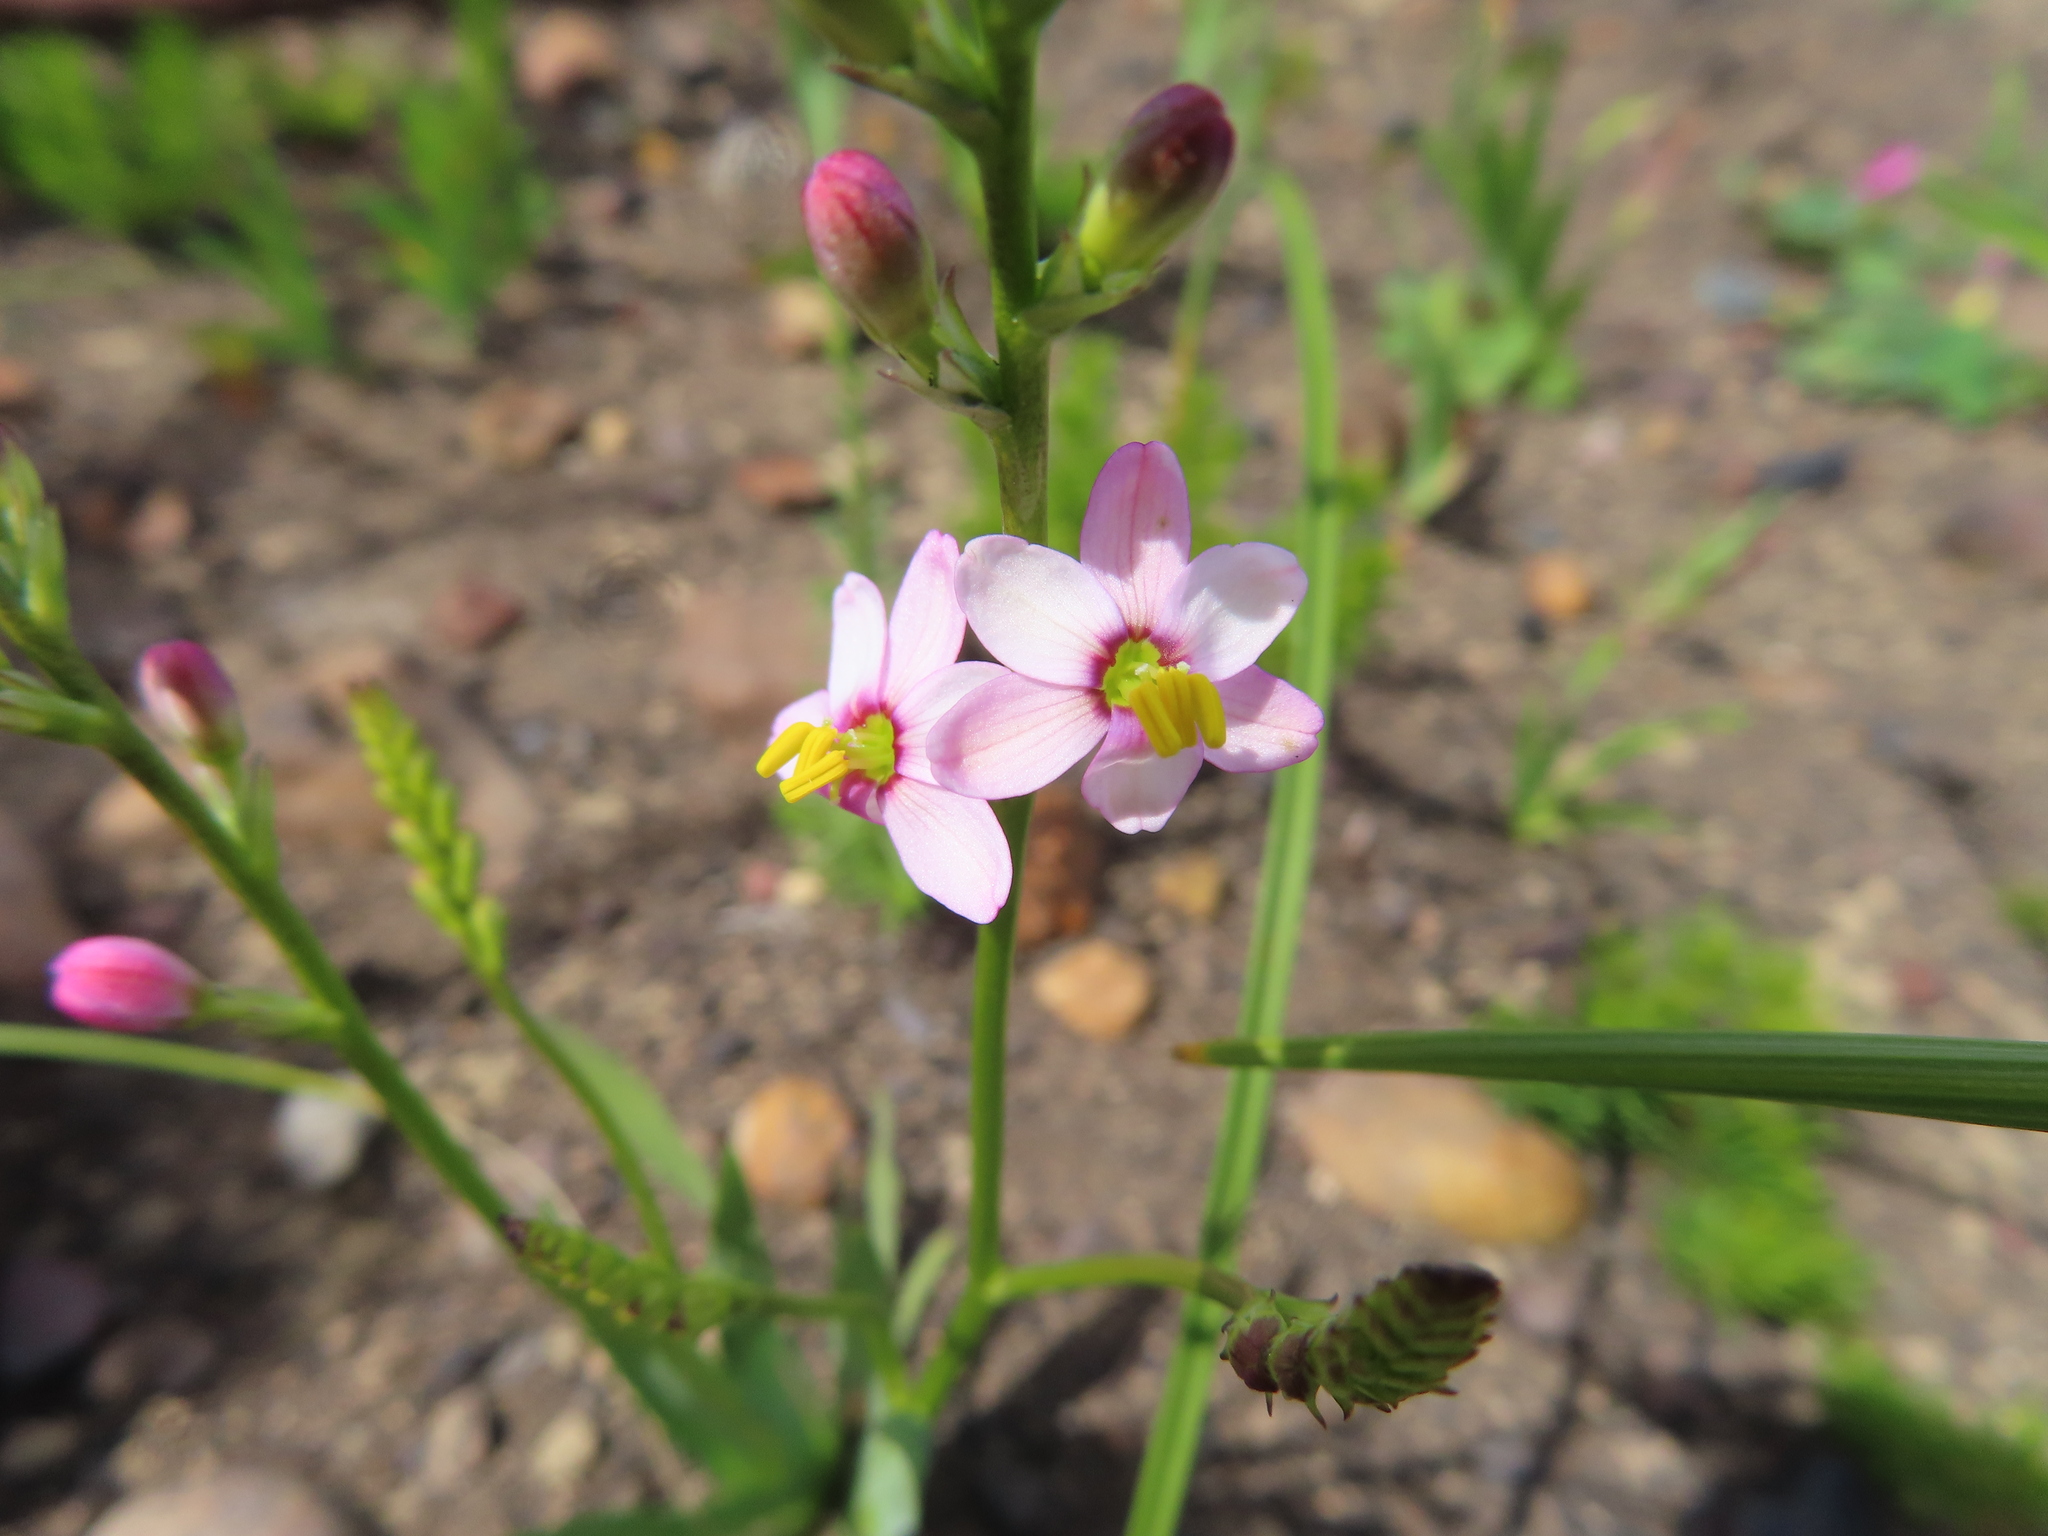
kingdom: Plantae
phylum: Tracheophyta
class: Liliopsida
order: Asparagales
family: Iridaceae
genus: Ixia
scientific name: Ixia scillaris
